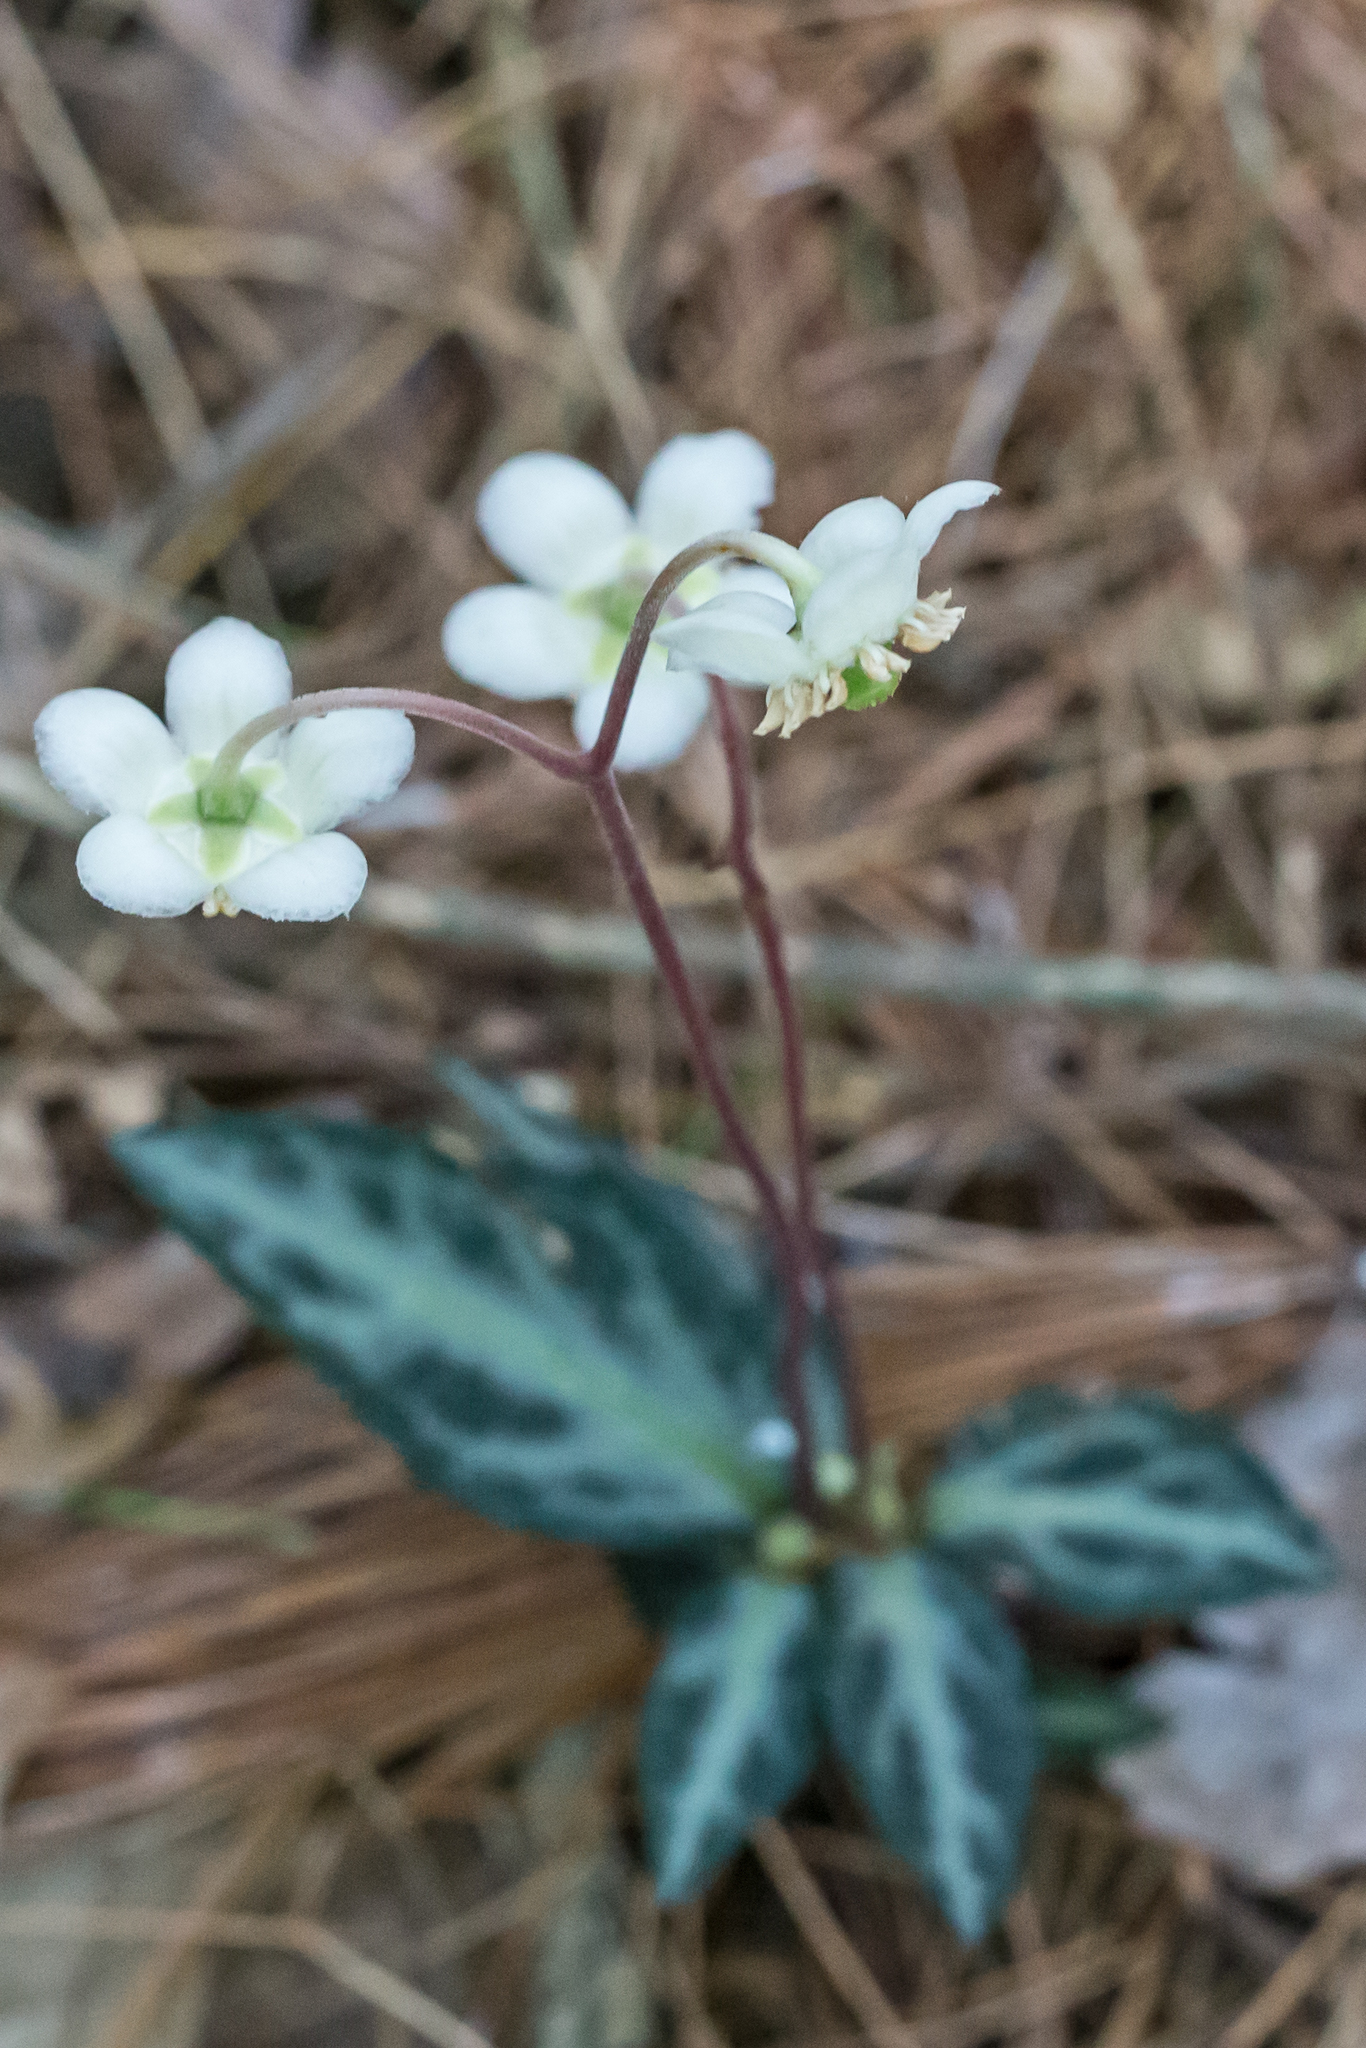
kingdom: Plantae
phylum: Tracheophyta
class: Magnoliopsida
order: Ericales
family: Ericaceae
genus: Chimaphila
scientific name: Chimaphila maculata
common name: Spotted pipsissewa
